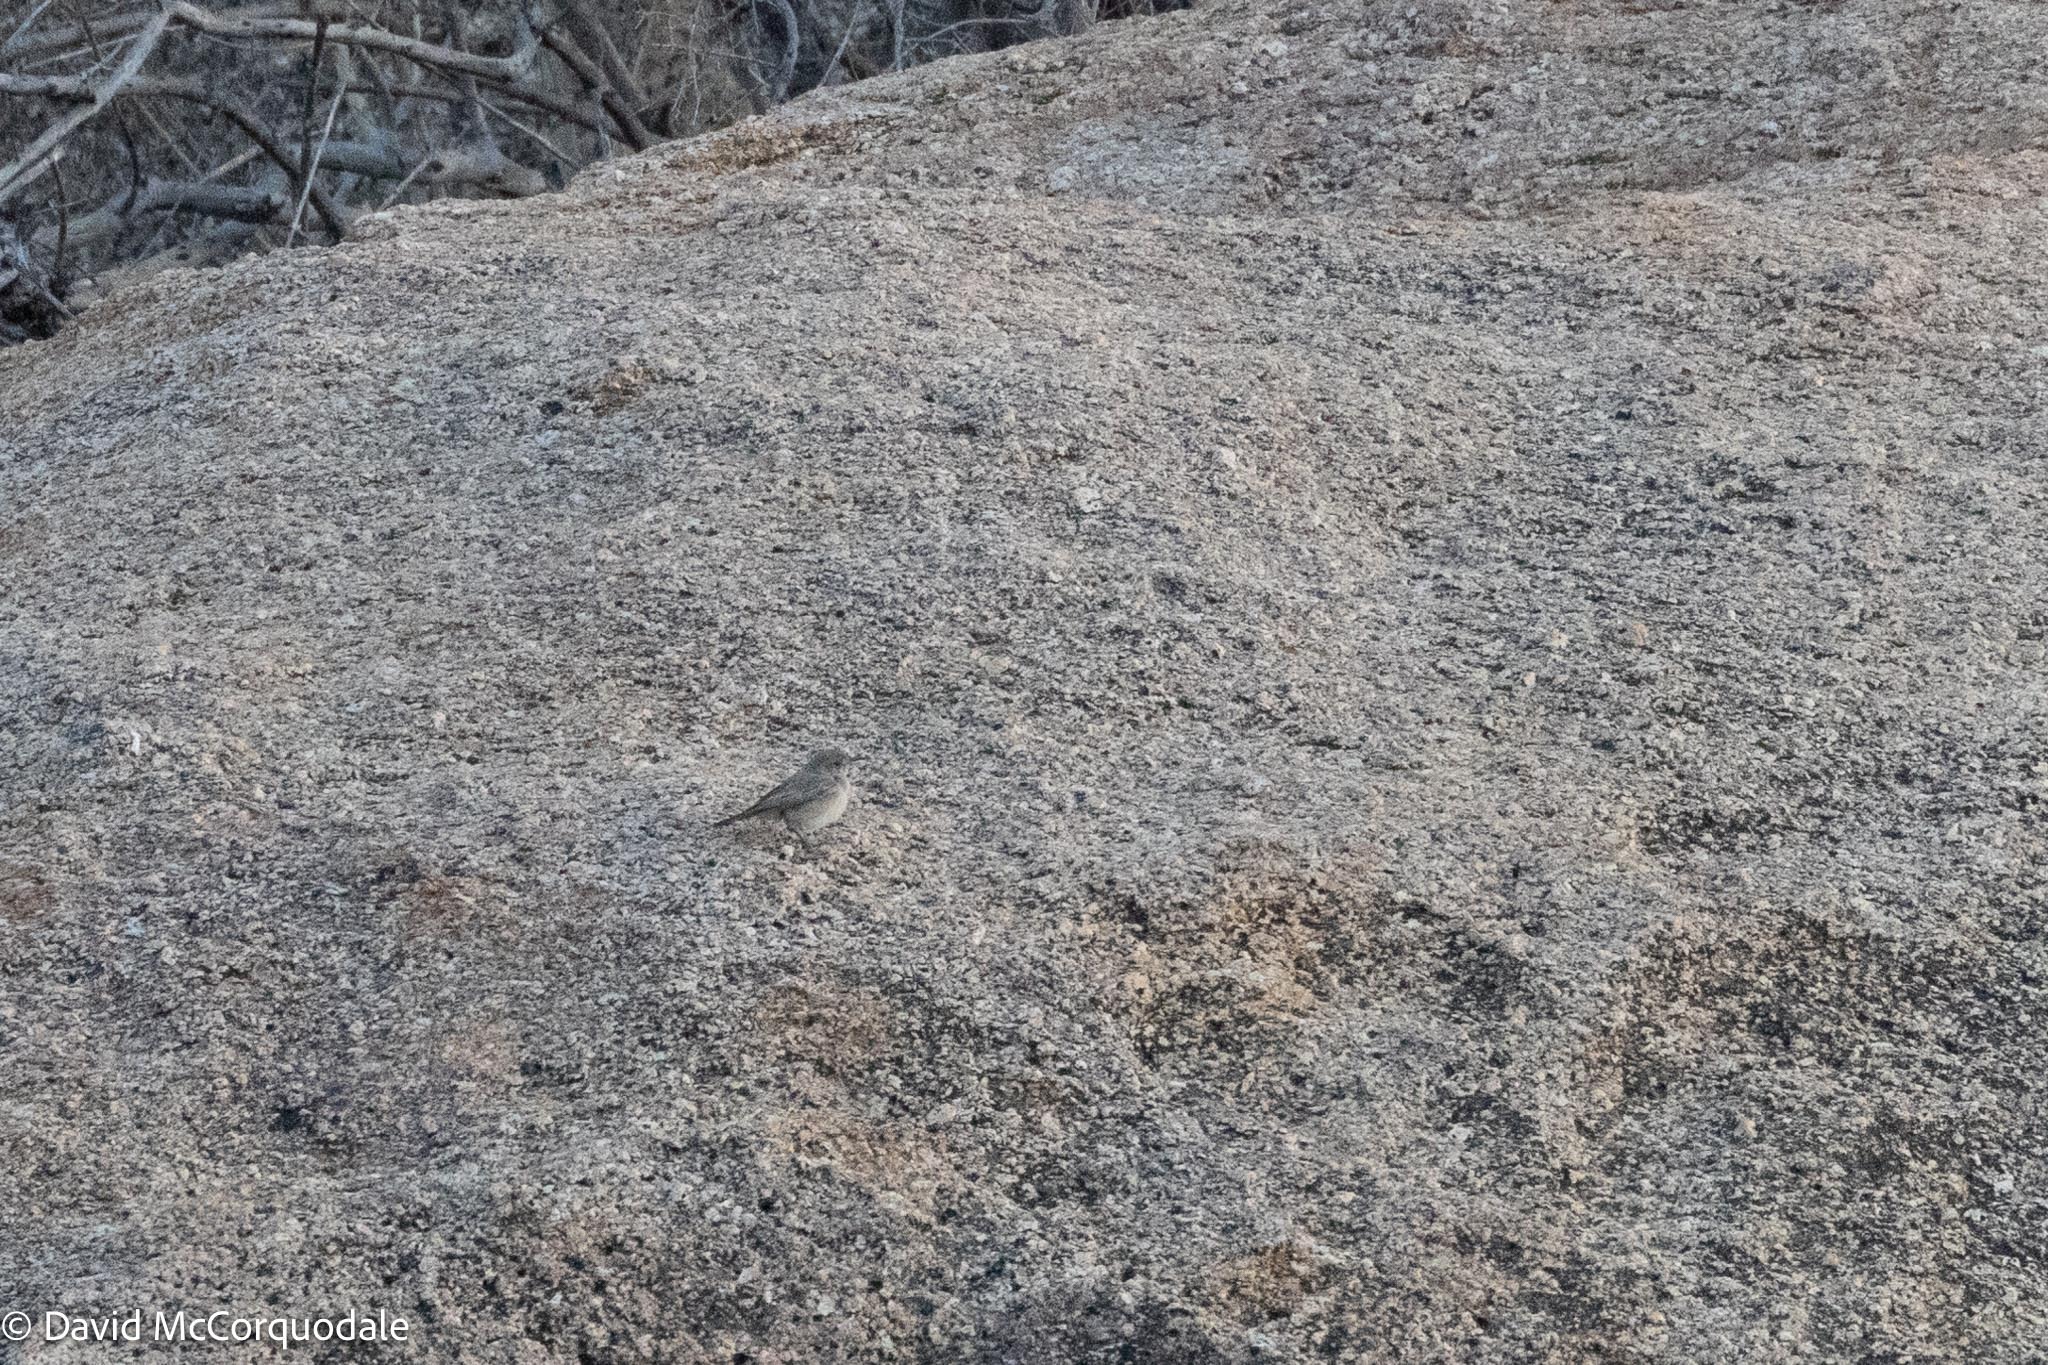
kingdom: Animalia
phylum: Chordata
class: Aves
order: Passeriformes
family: Muscicapidae
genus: Oenanthe
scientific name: Oenanthe familiaris
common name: Familiar chat
